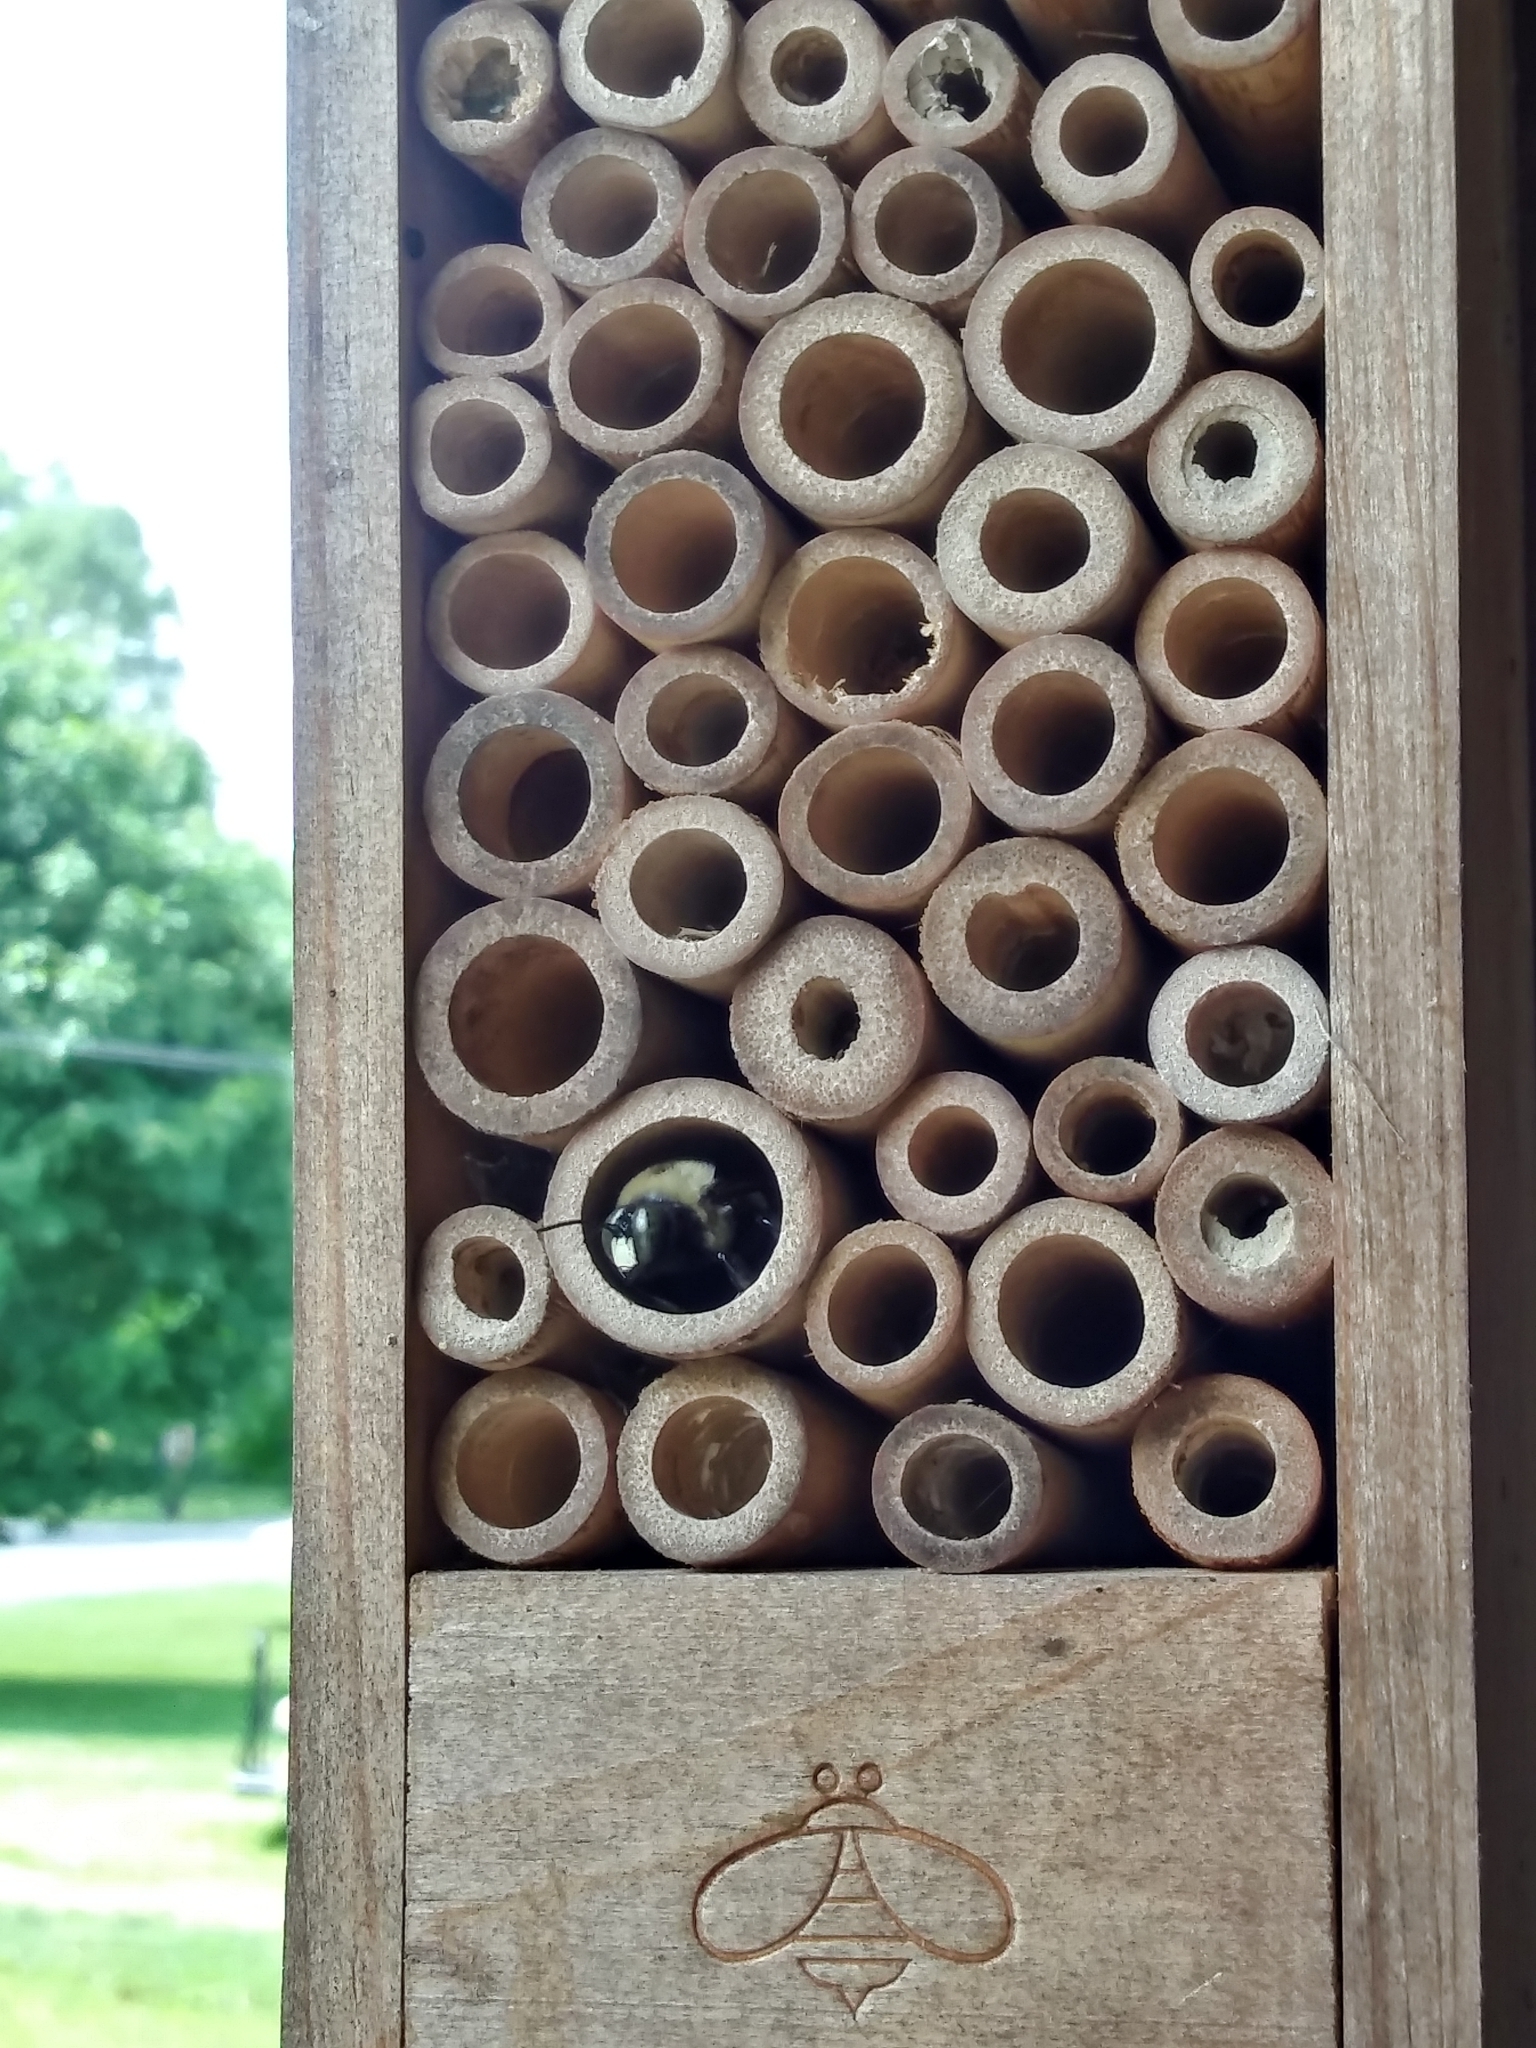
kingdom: Animalia
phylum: Arthropoda
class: Insecta
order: Hymenoptera
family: Apidae
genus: Xylocopa
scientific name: Xylocopa virginica
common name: Carpenter bee
